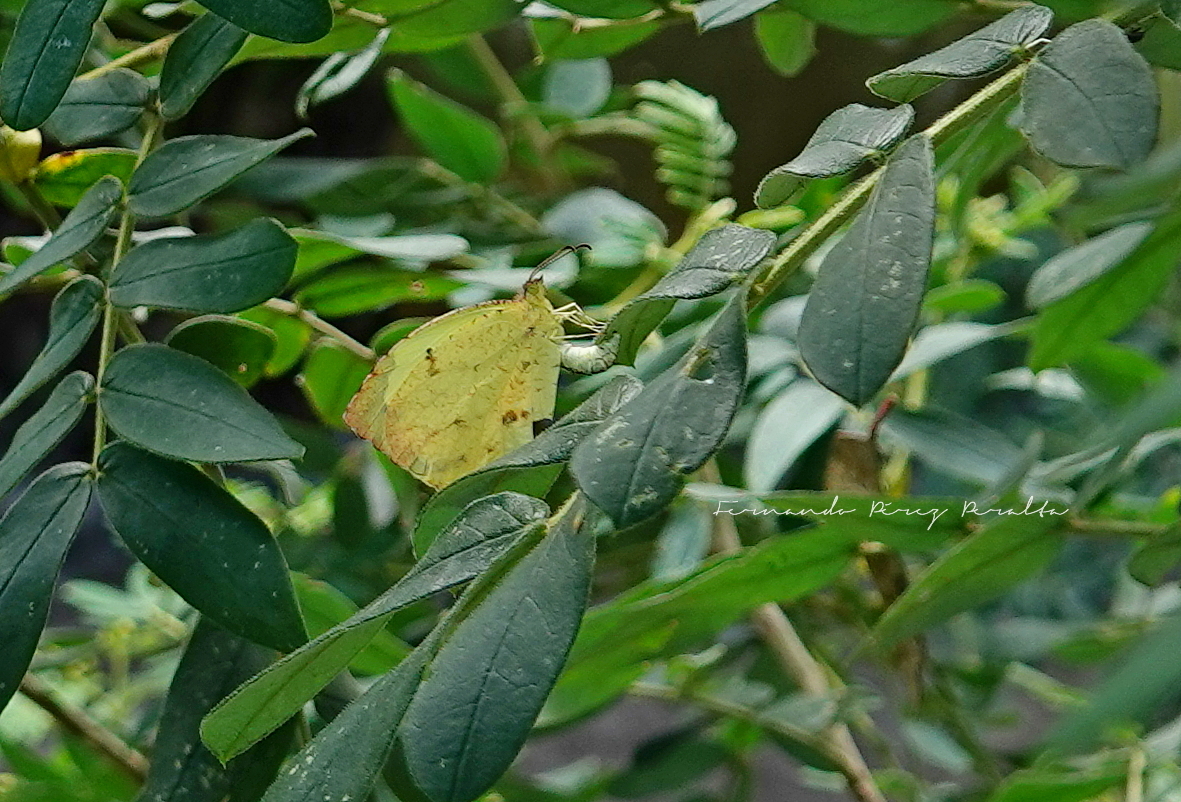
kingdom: Animalia
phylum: Arthropoda
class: Insecta
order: Lepidoptera
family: Pieridae
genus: Abaeis
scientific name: Abaeis salome
